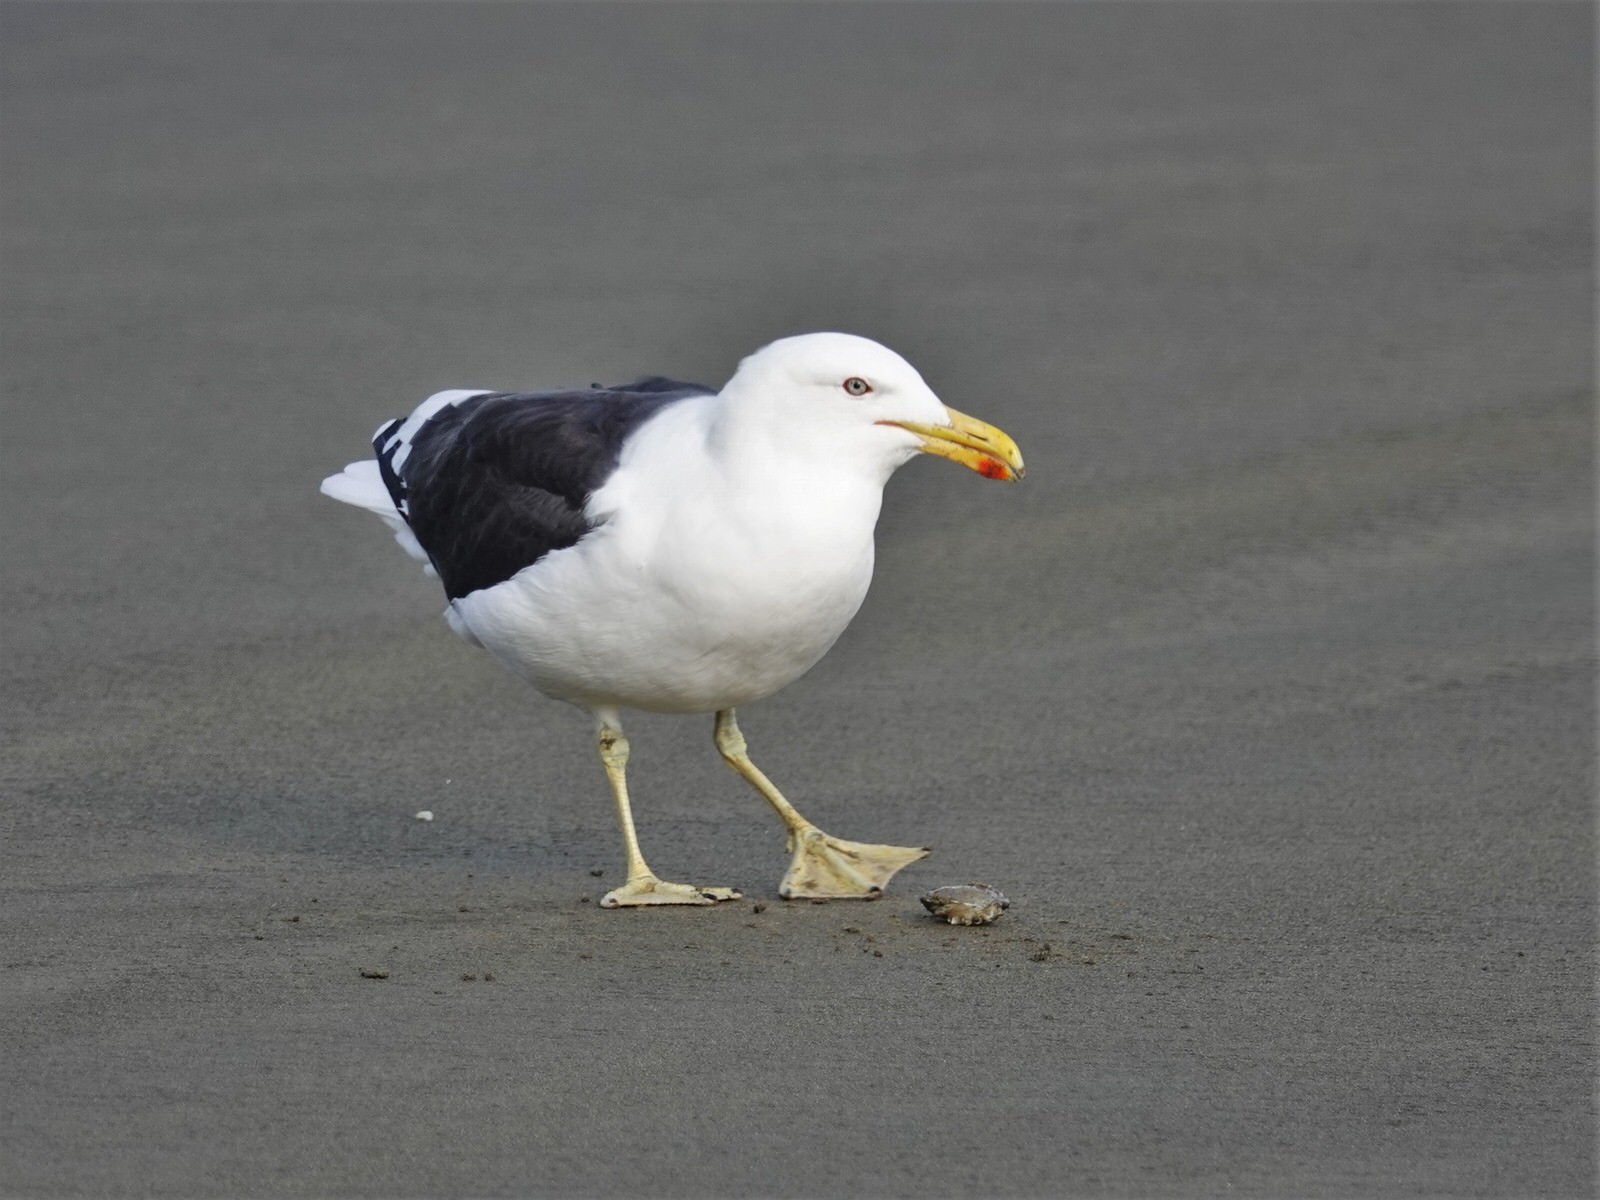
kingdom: Animalia
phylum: Chordata
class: Aves
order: Charadriiformes
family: Laridae
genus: Larus
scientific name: Larus dominicanus
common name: Kelp gull
